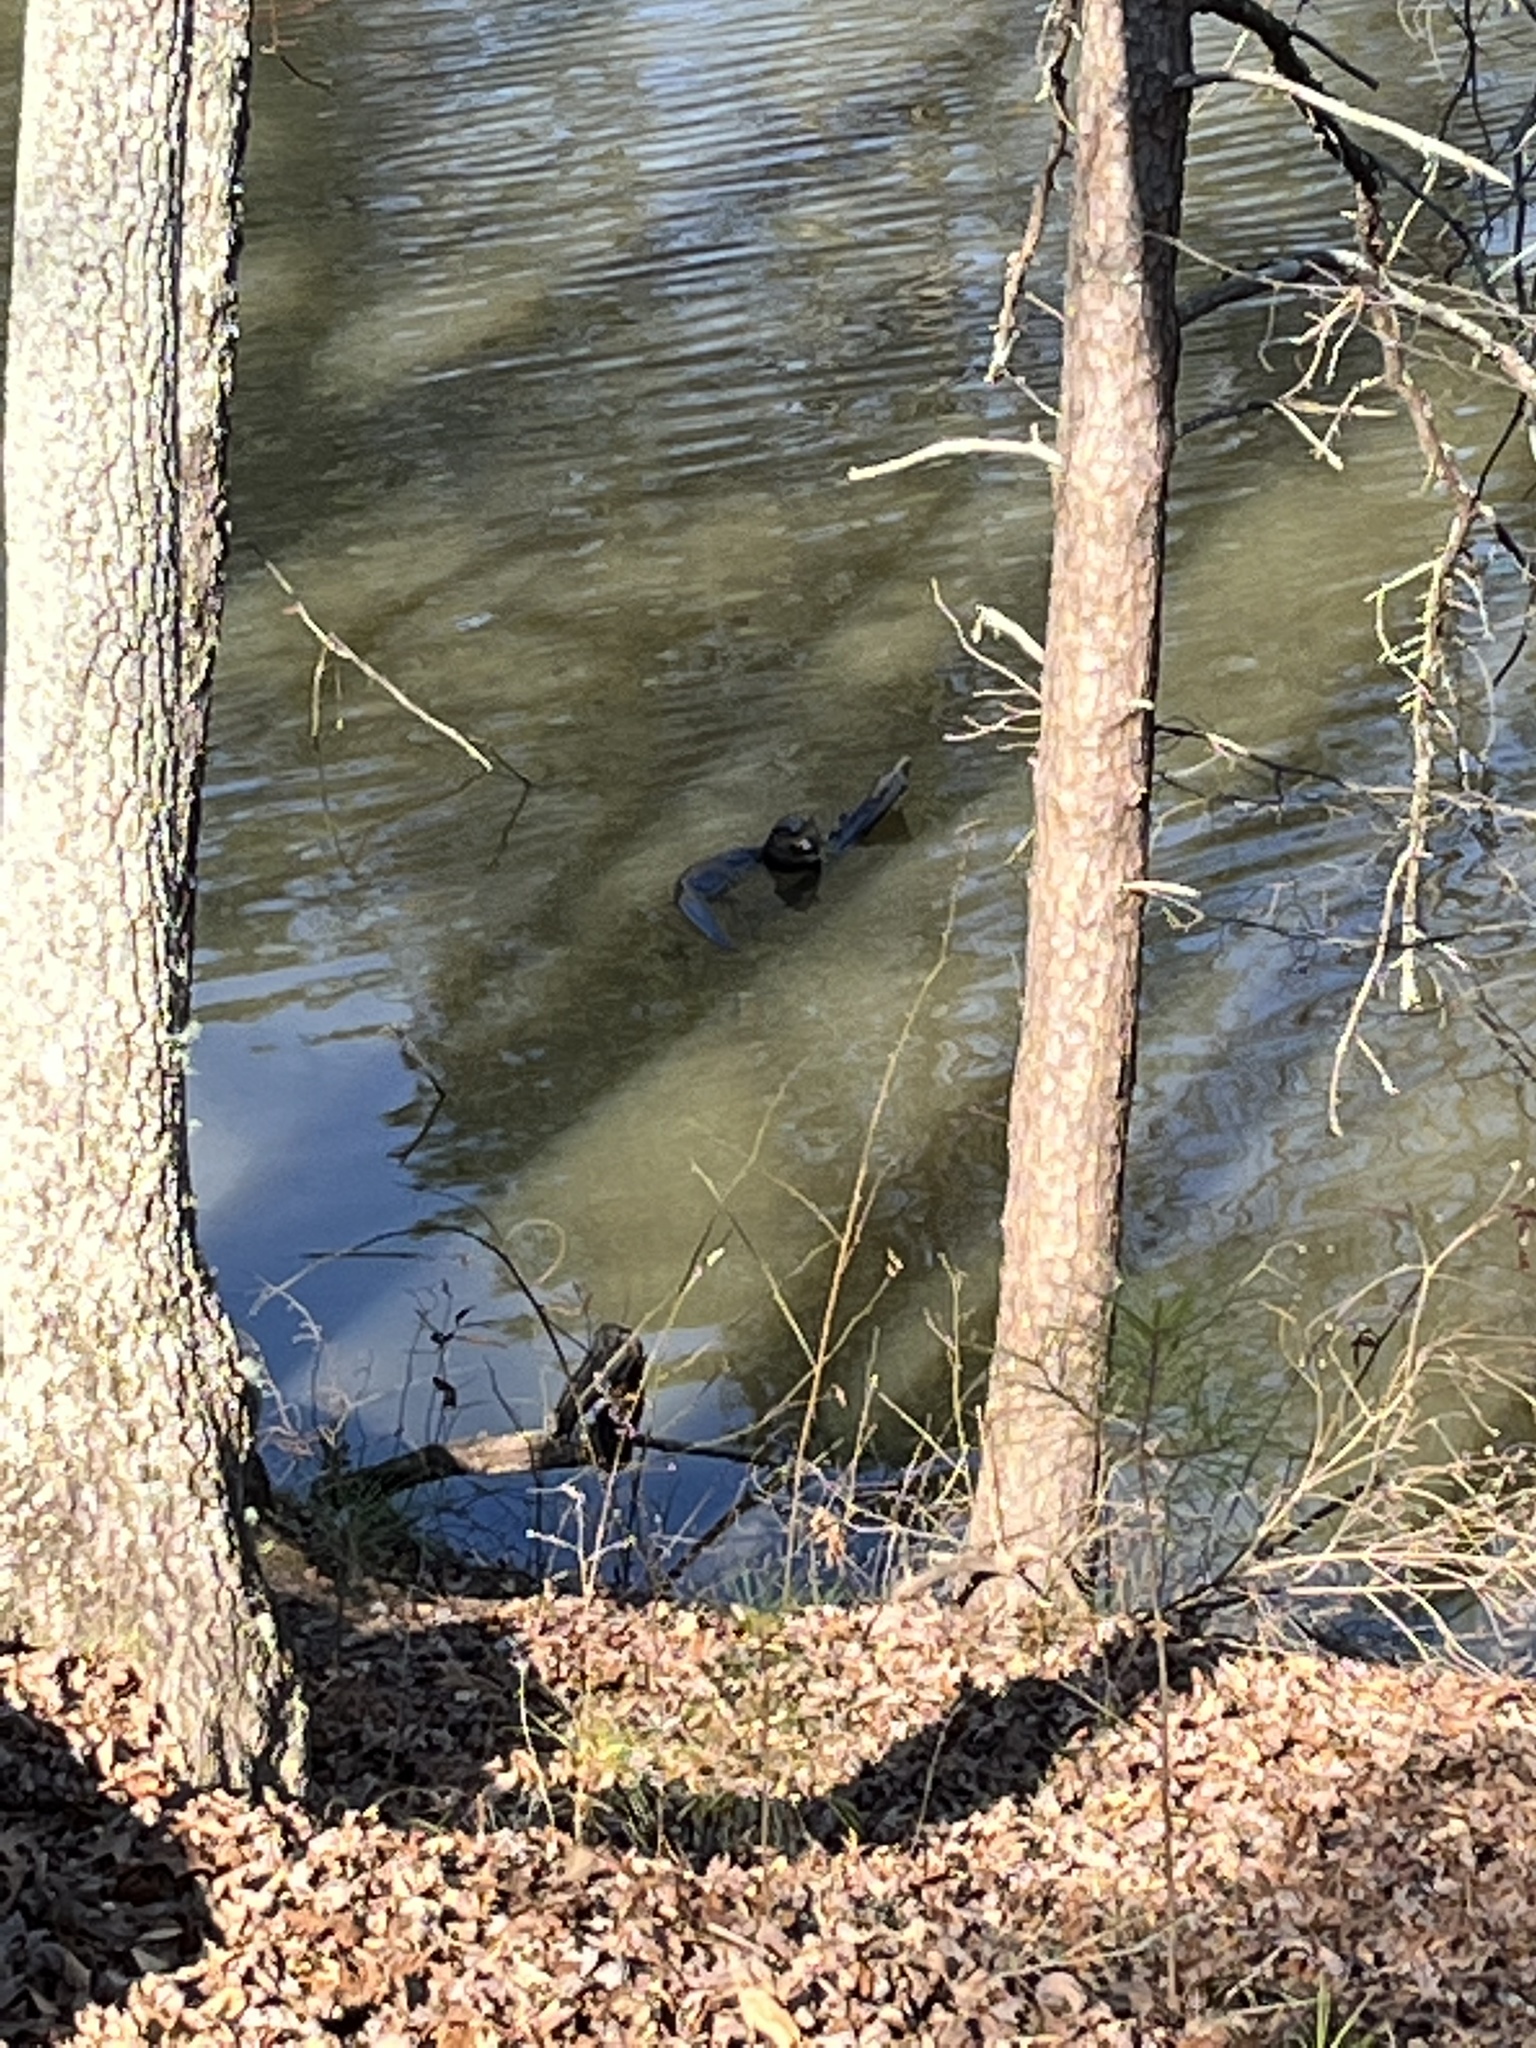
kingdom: Animalia
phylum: Chordata
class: Mammalia
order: Carnivora
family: Mustelidae
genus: Lontra
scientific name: Lontra canadensis
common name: North american river otter
